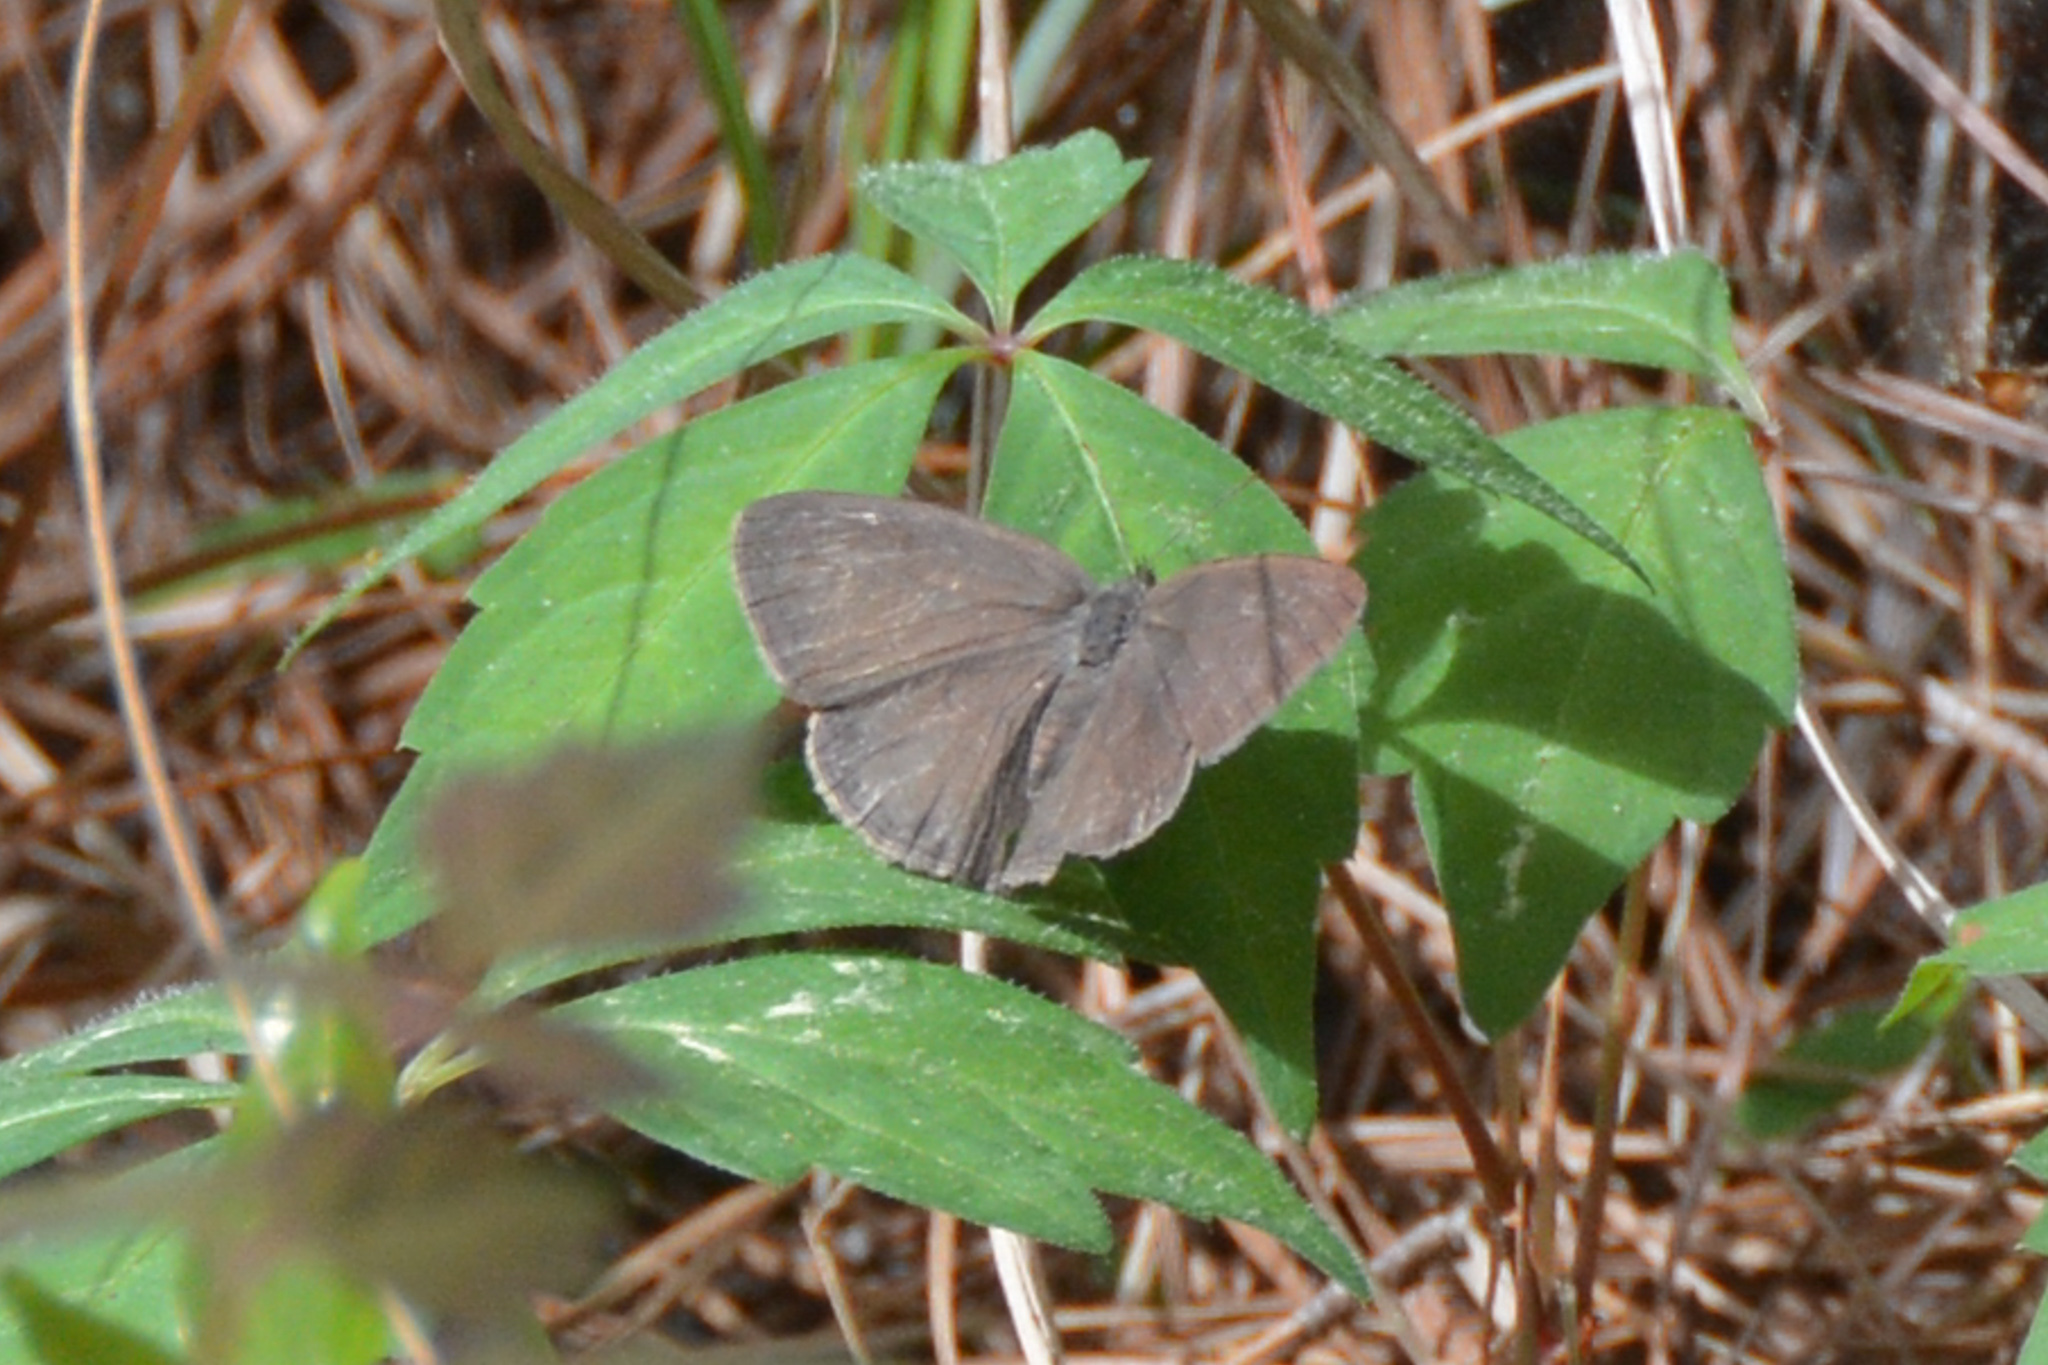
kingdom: Animalia
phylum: Arthropoda
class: Insecta
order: Lepidoptera
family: Nymphalidae
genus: Hermeuptychia
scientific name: Hermeuptychia hermes
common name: Hermes satyr
